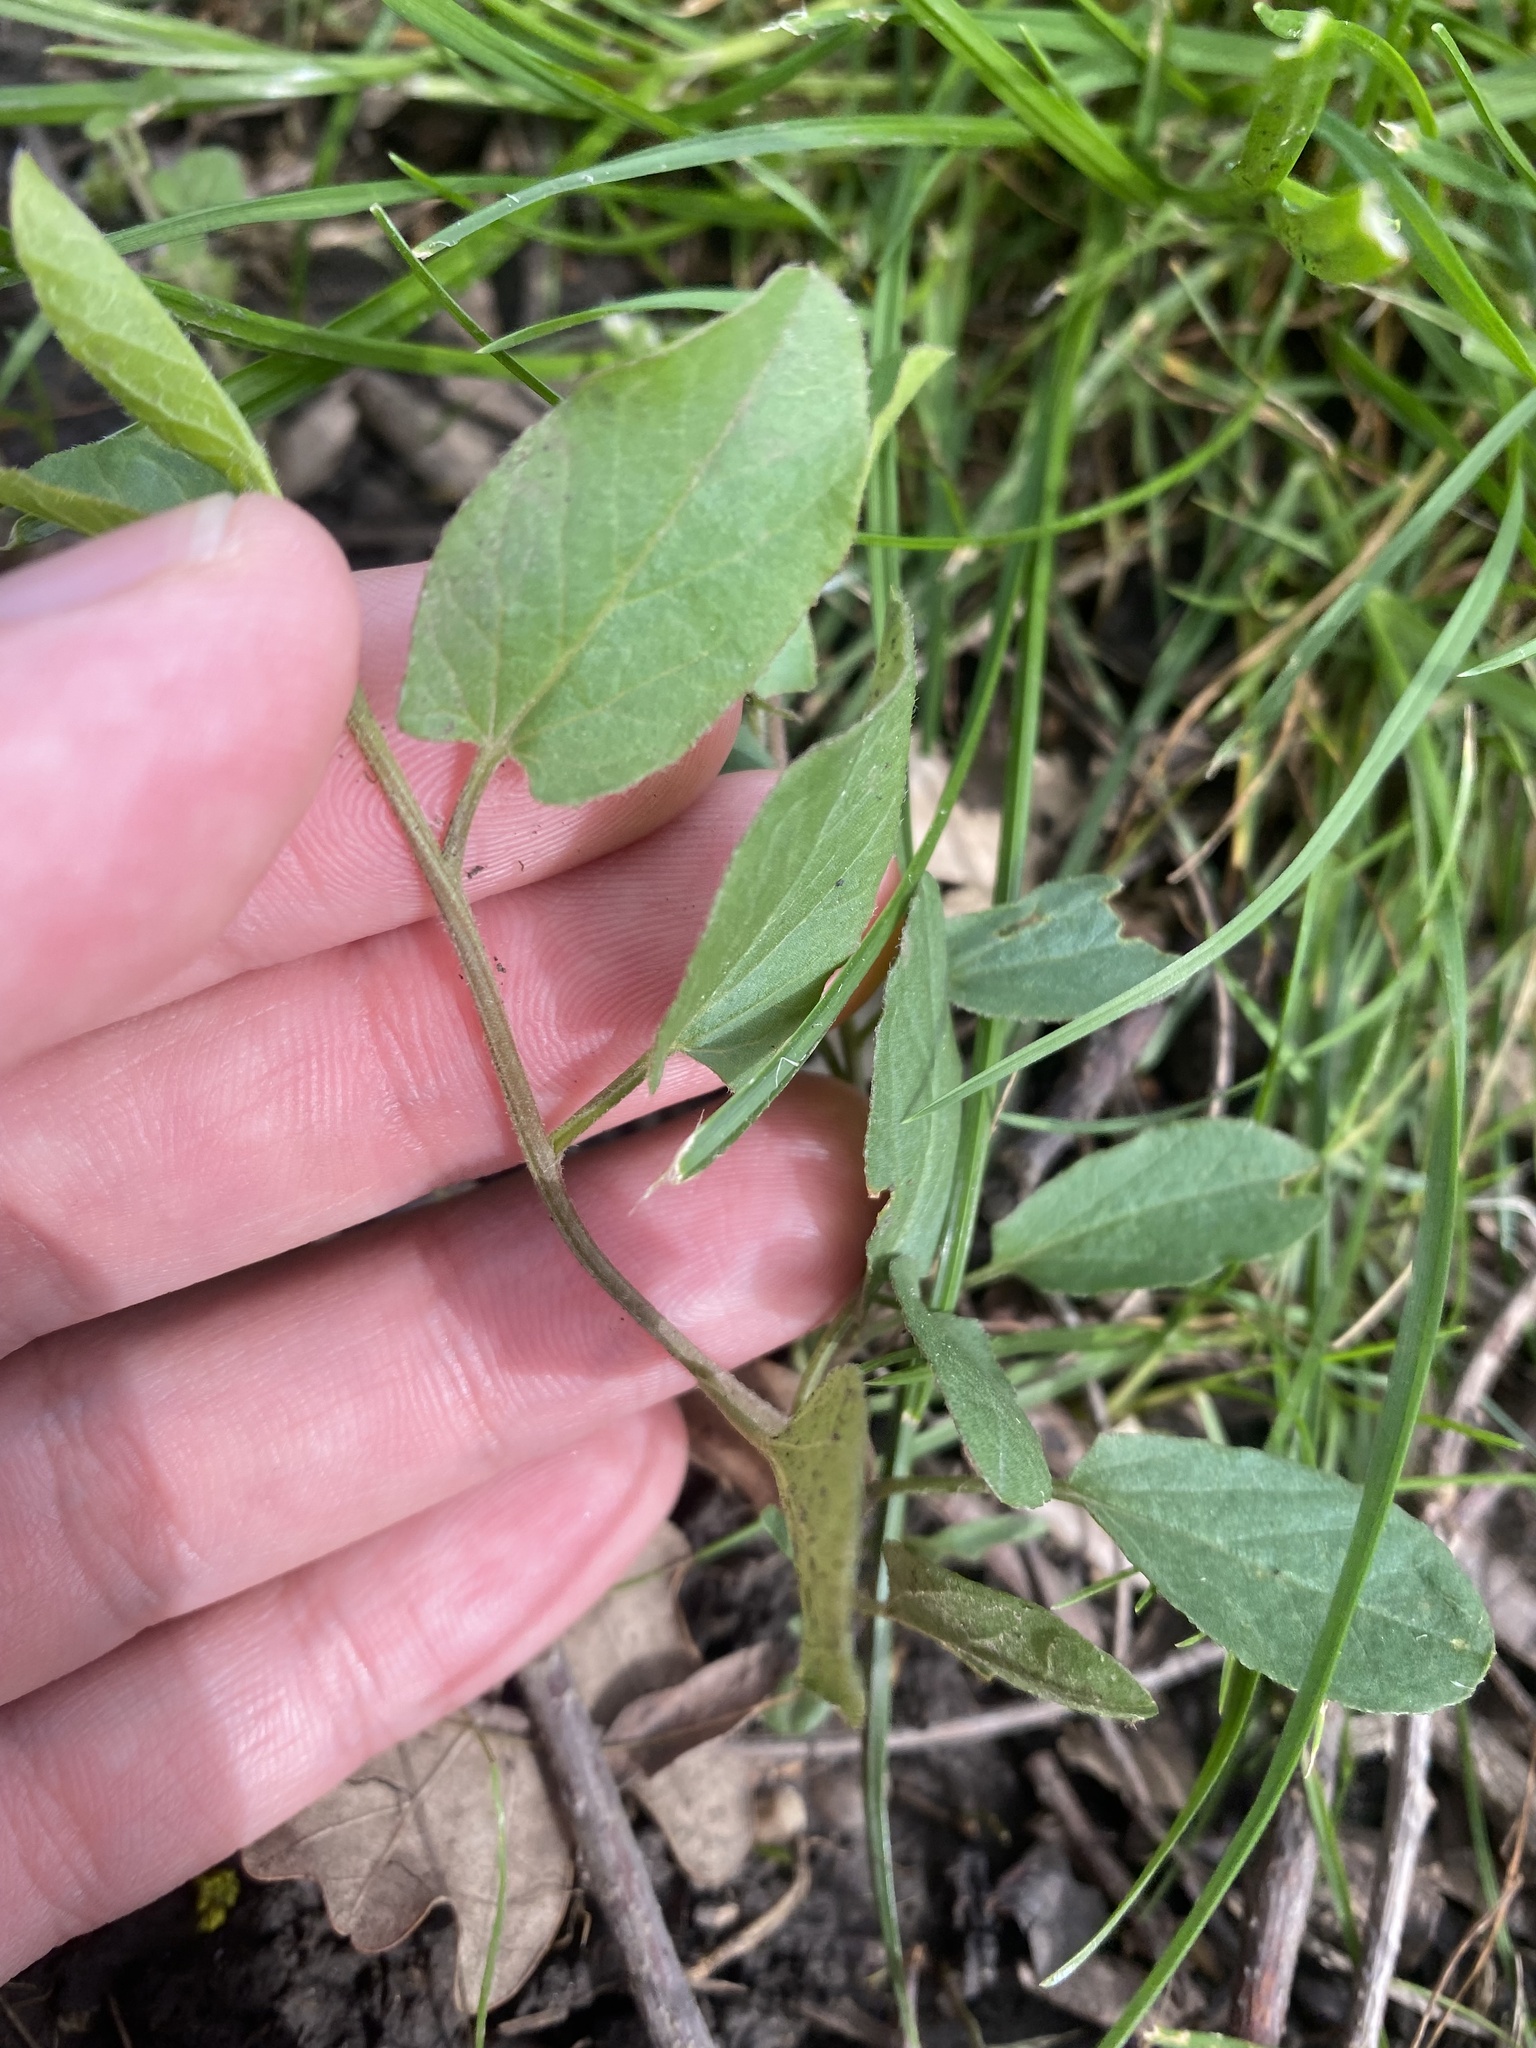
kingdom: Plantae
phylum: Tracheophyta
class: Magnoliopsida
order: Solanales
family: Convolvulaceae
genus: Convolvulus
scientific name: Convolvulus arvensis
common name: Field bindweed
